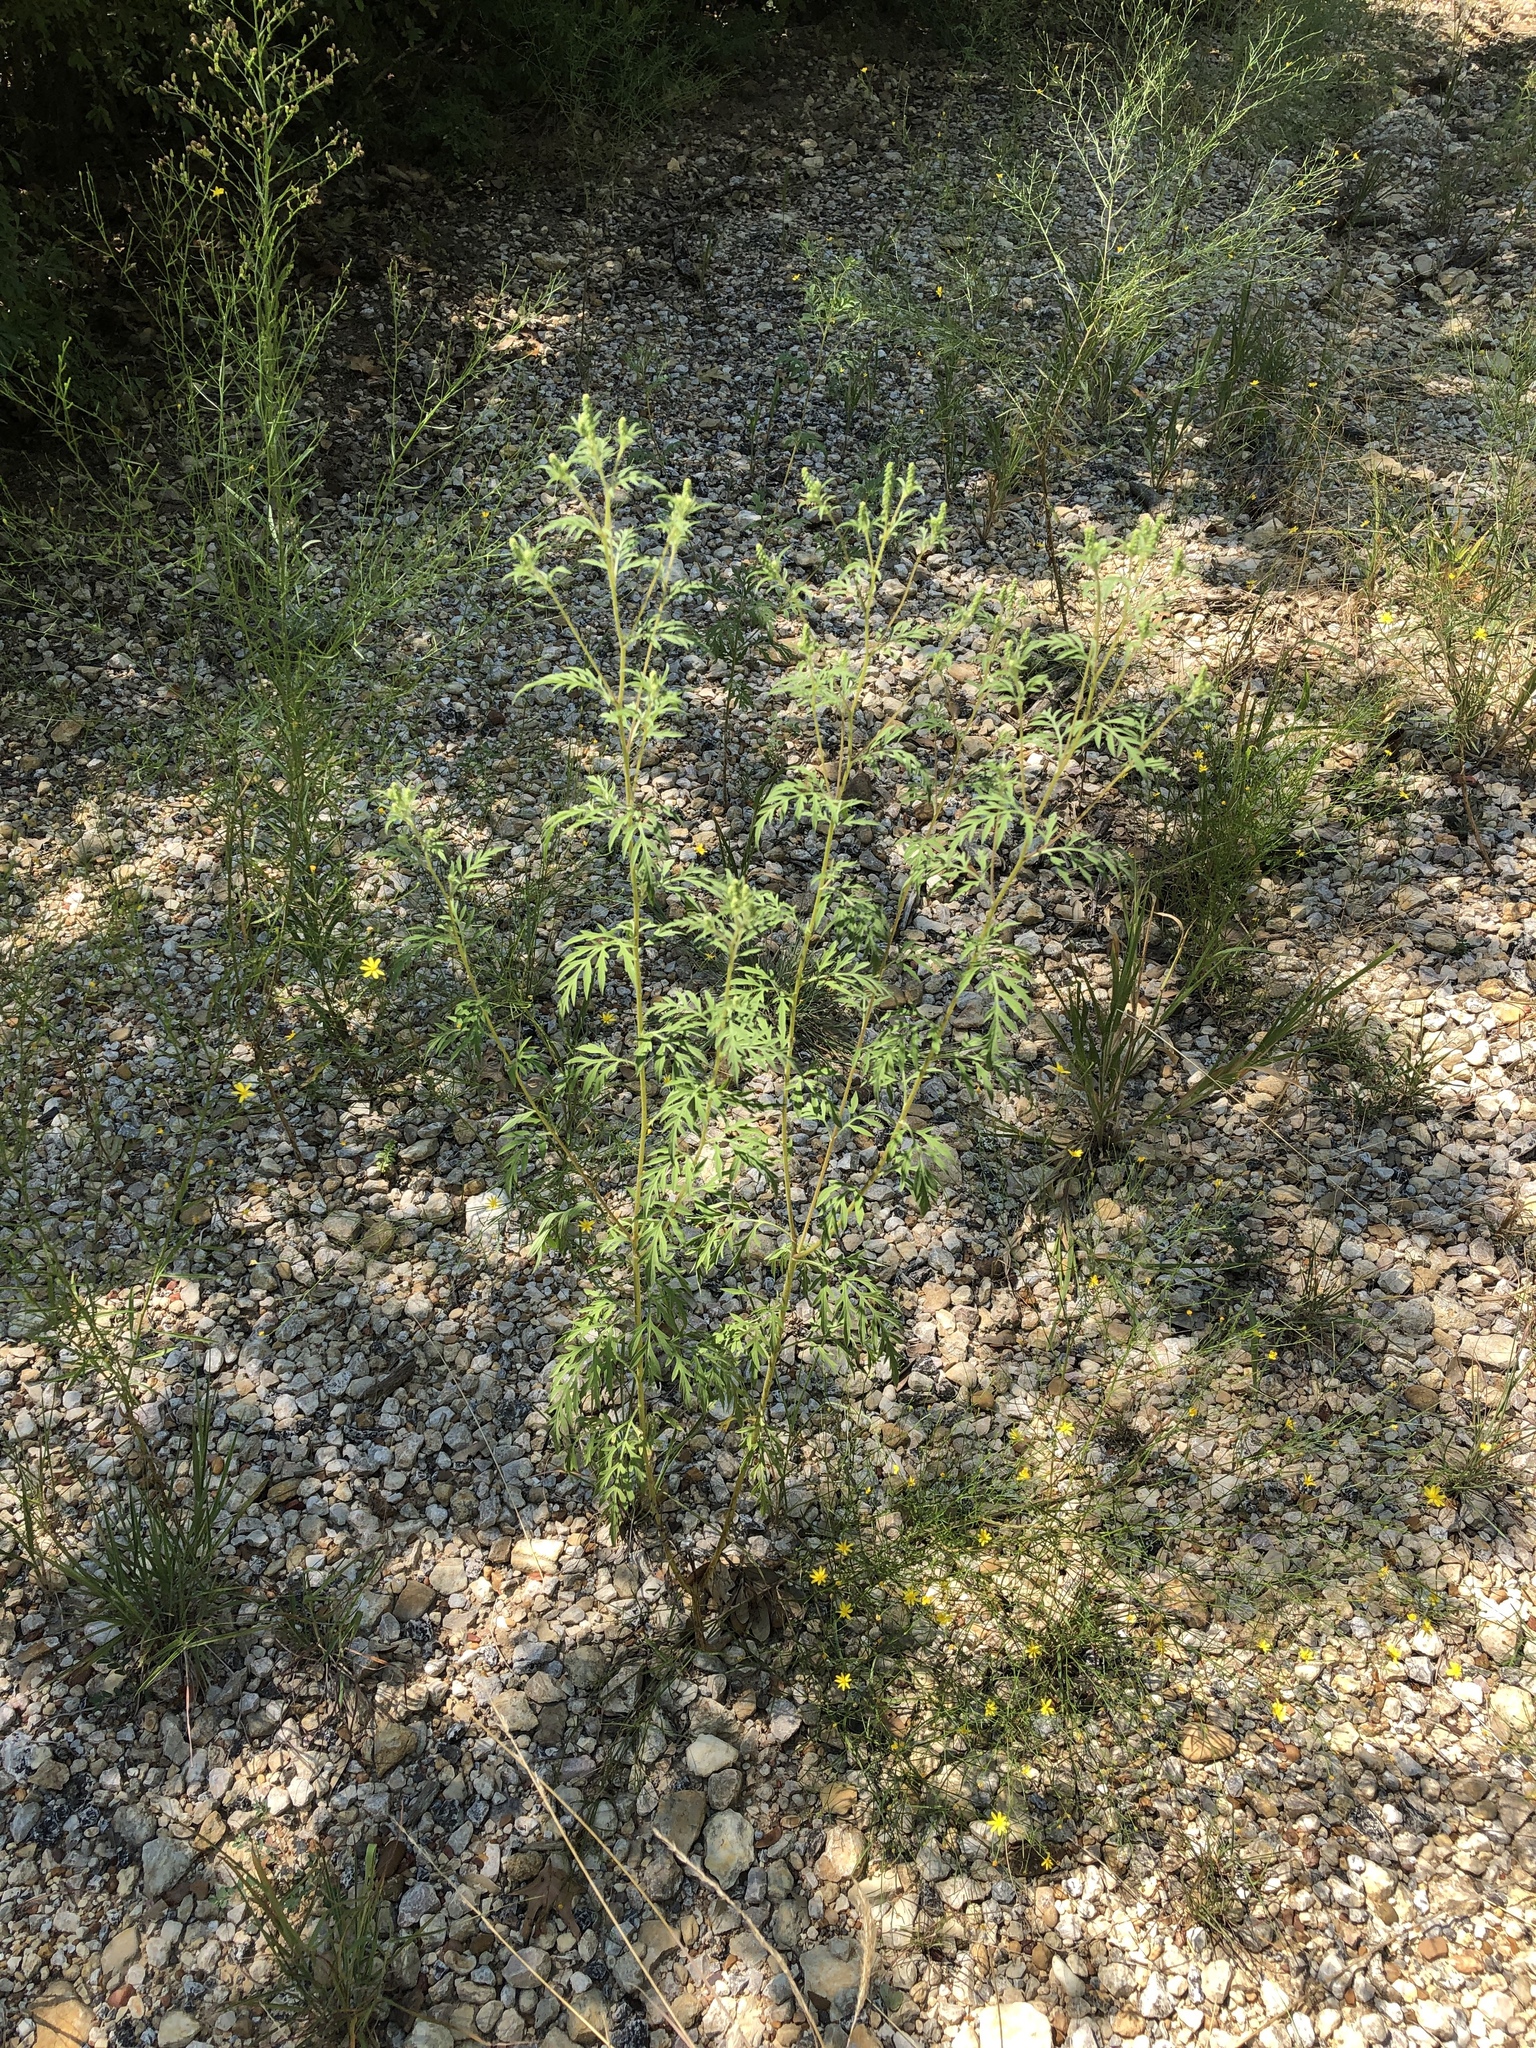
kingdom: Plantae
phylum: Tracheophyta
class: Magnoliopsida
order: Asterales
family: Asteraceae
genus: Ambrosia
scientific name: Ambrosia artemisiifolia
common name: Annual ragweed
